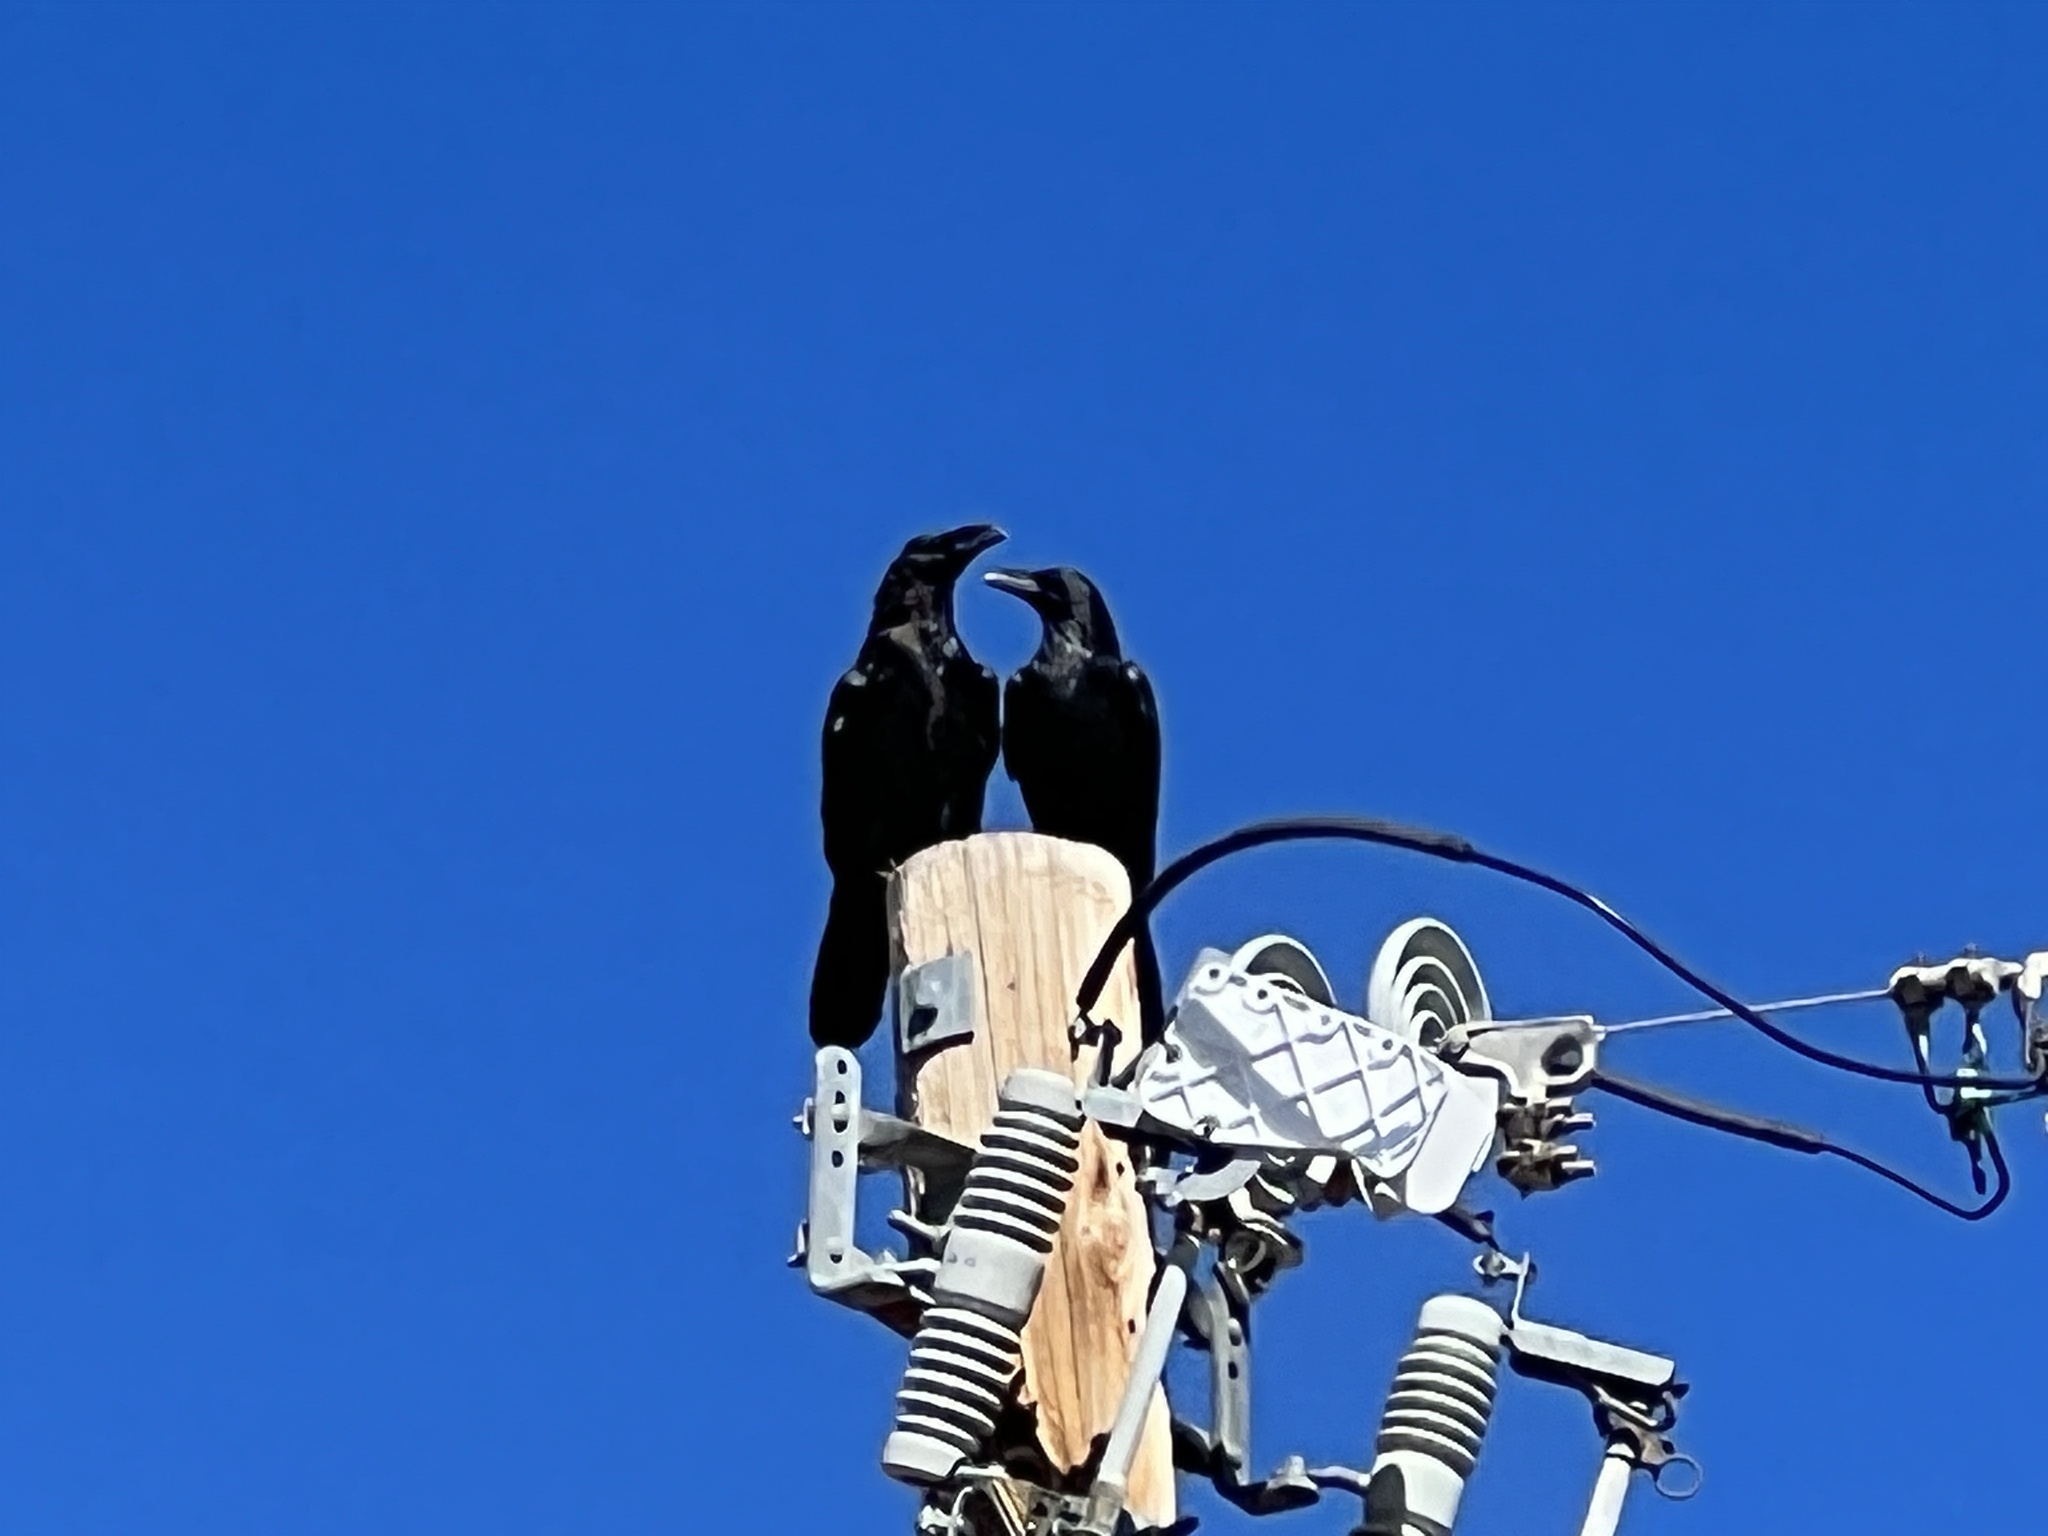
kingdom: Animalia
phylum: Chordata
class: Aves
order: Passeriformes
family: Corvidae
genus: Corvus
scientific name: Corvus corax
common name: Common raven
